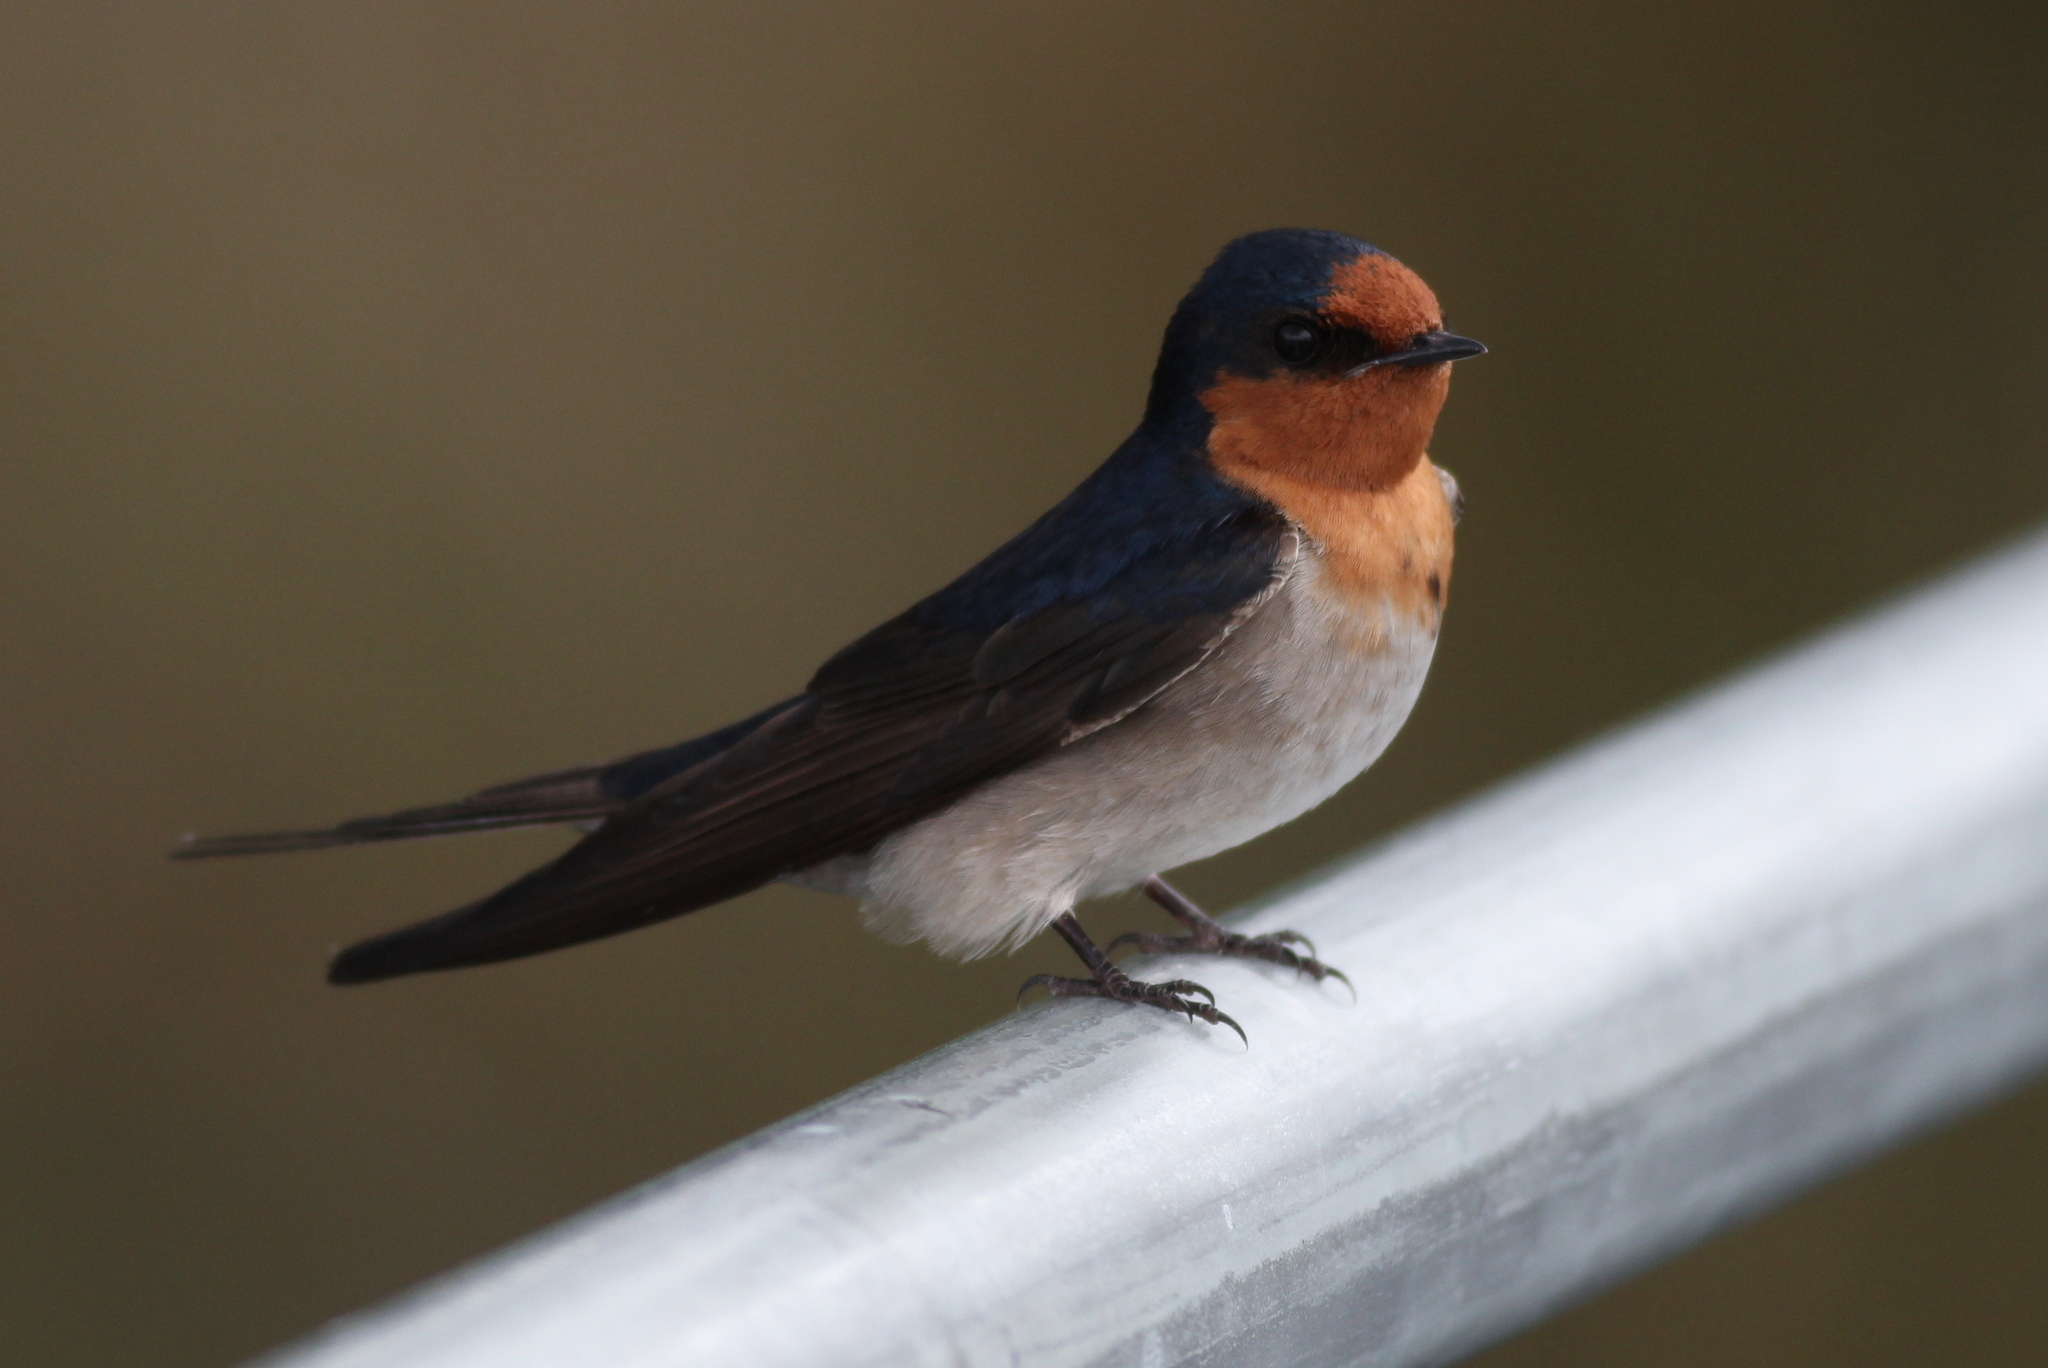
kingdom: Animalia
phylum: Chordata
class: Aves
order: Passeriformes
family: Hirundinidae
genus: Hirundo
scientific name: Hirundo neoxena
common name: Welcome swallow
